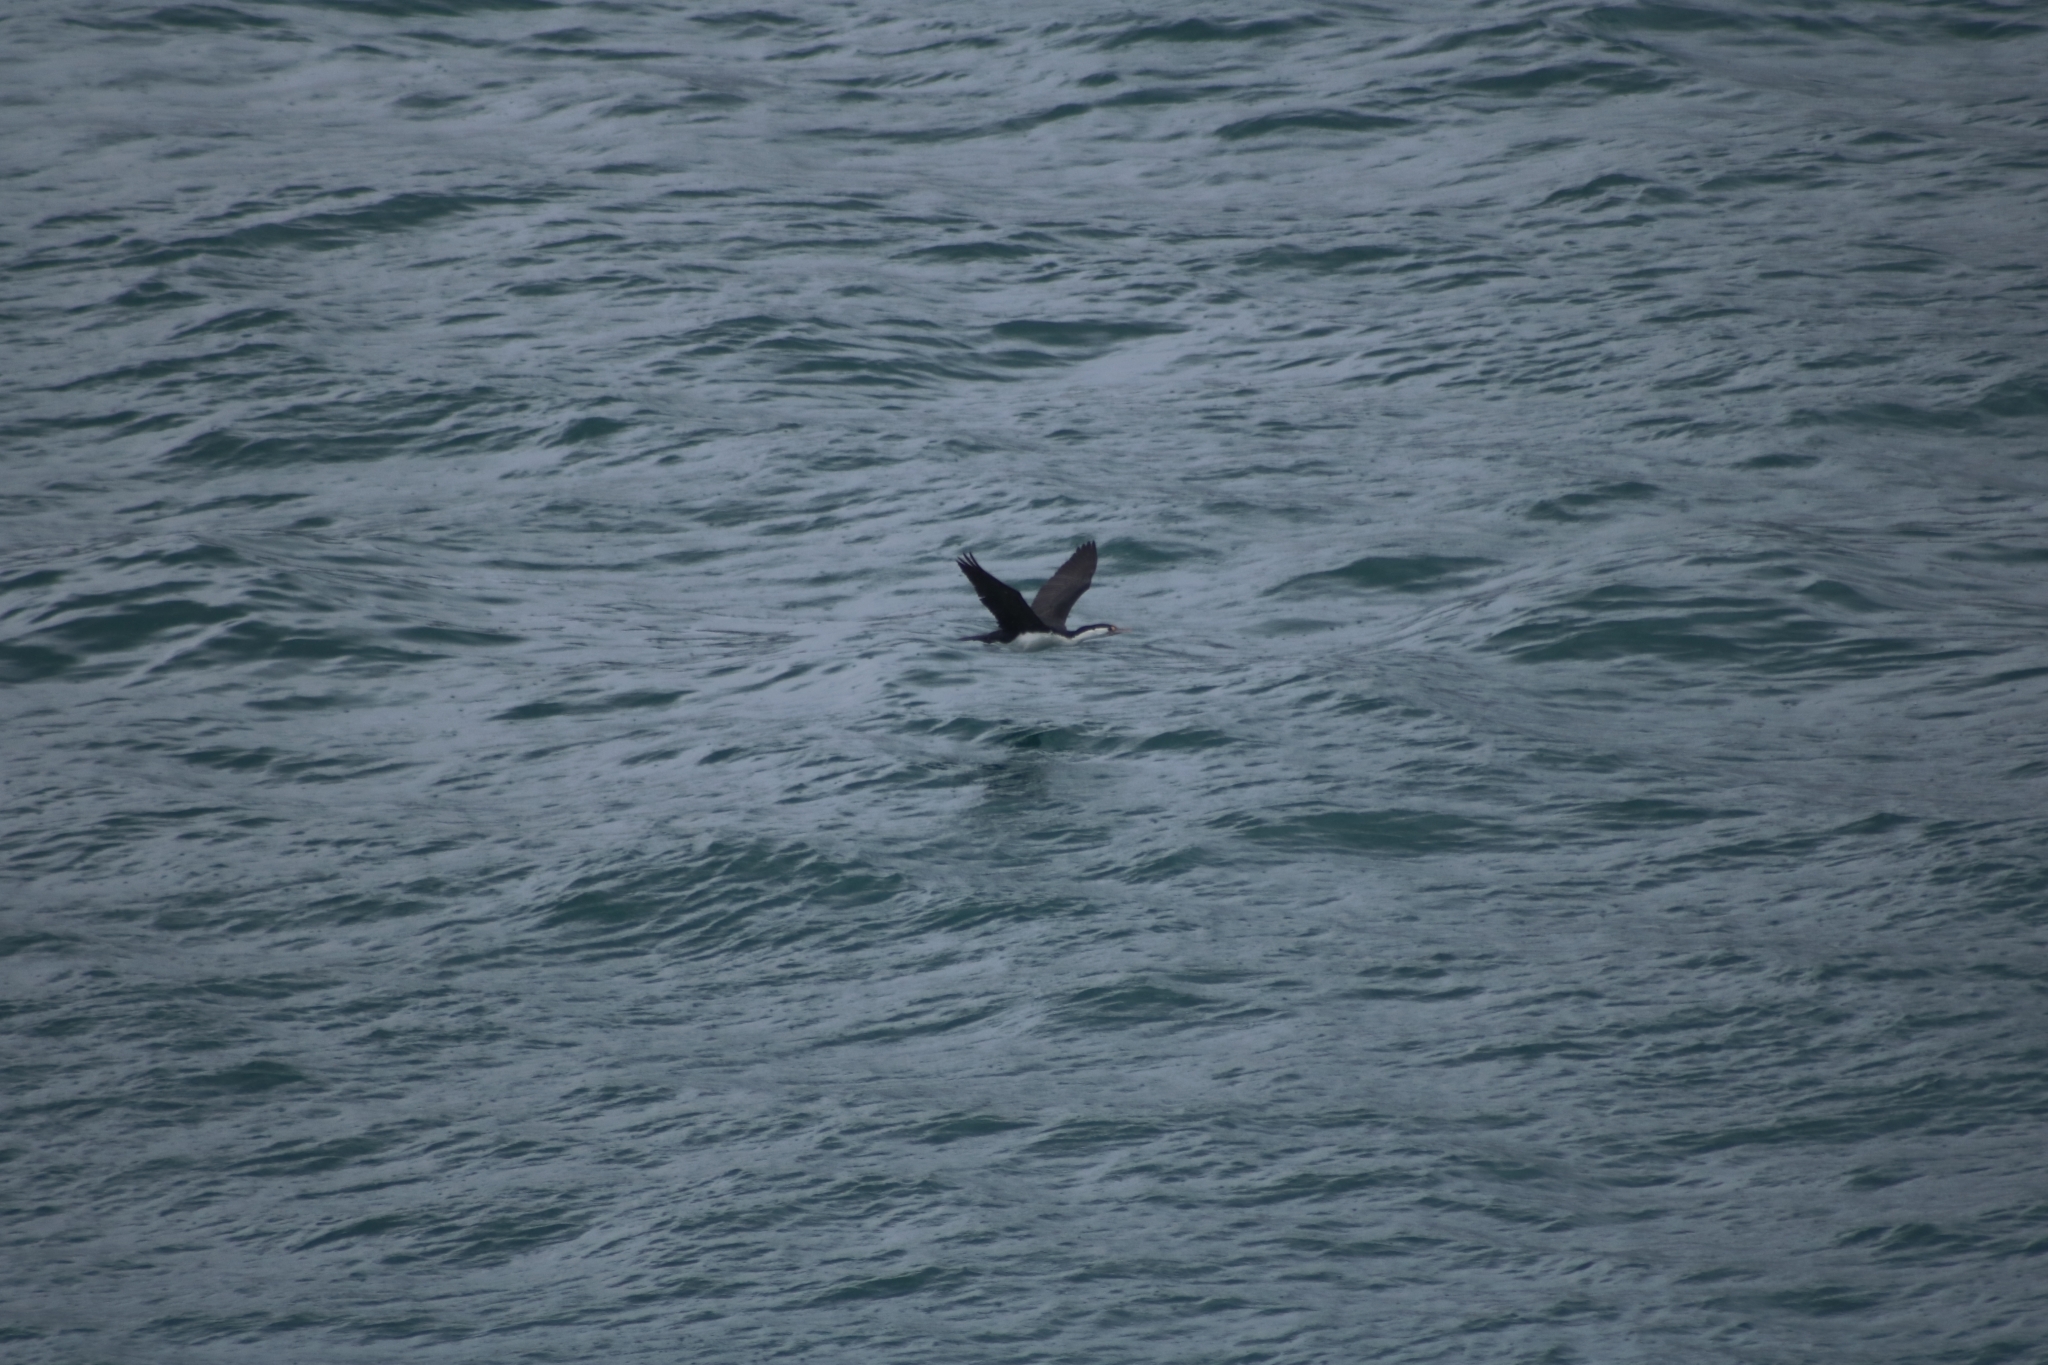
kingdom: Animalia
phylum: Chordata
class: Aves
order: Suliformes
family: Phalacrocoracidae
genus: Phalacrocorax
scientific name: Phalacrocorax varius
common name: Pied cormorant
